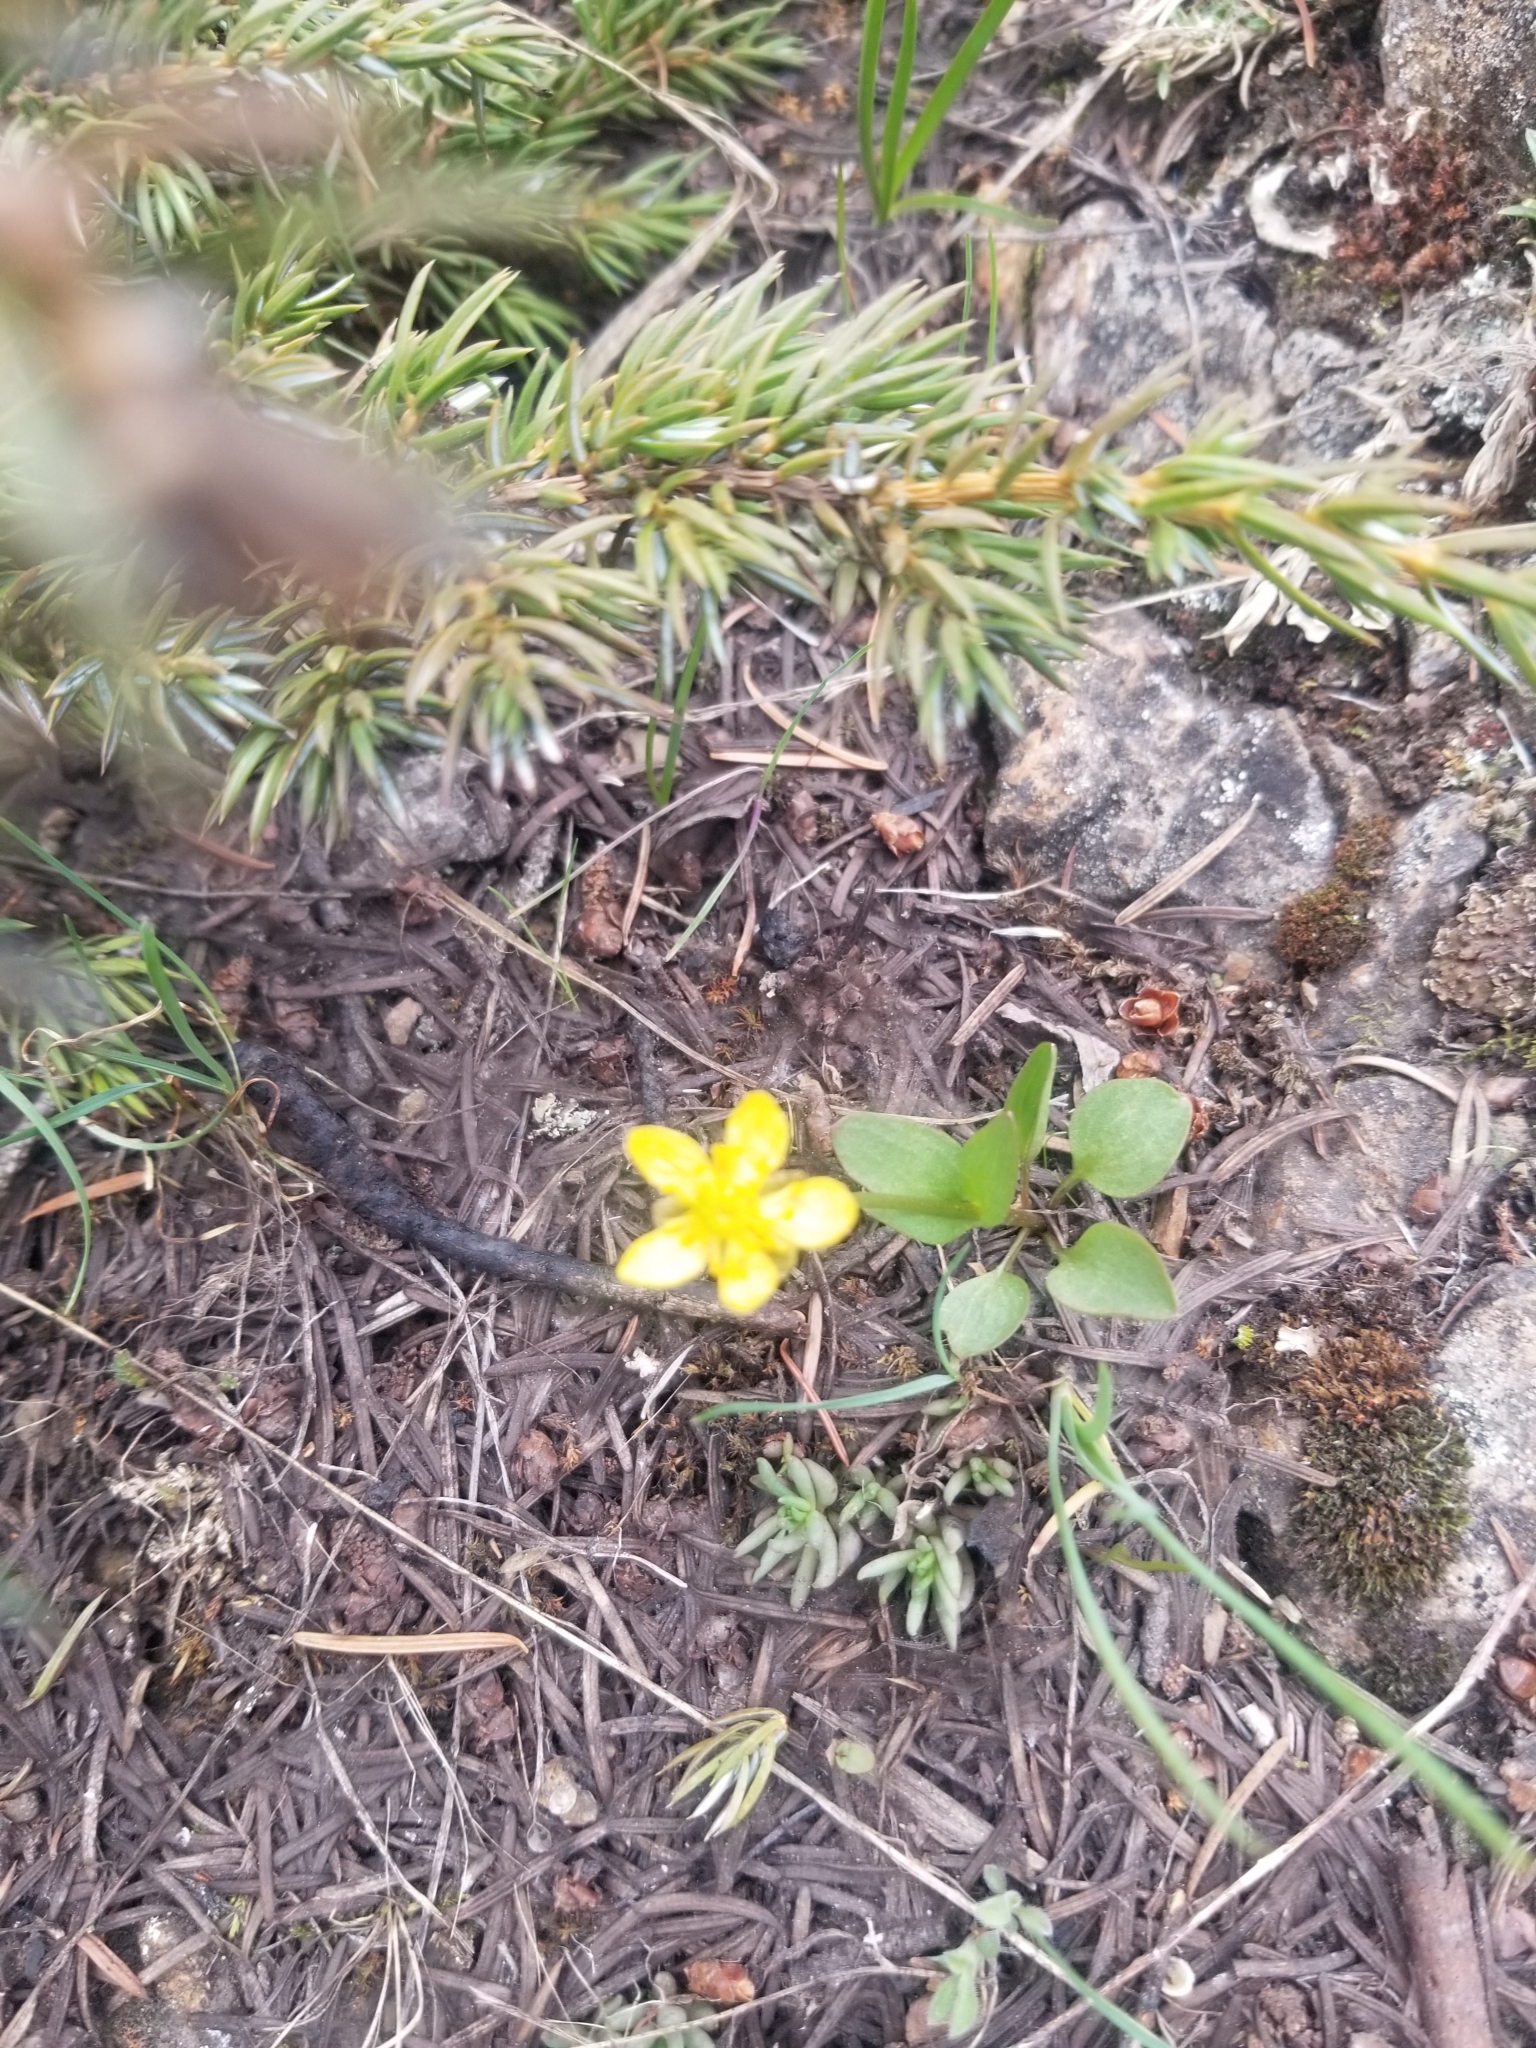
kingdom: Plantae
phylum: Tracheophyta
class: Magnoliopsida
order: Ranunculales
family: Ranunculaceae
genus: Ranunculus
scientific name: Ranunculus glaberrimus
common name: Sagebrush buttercup
